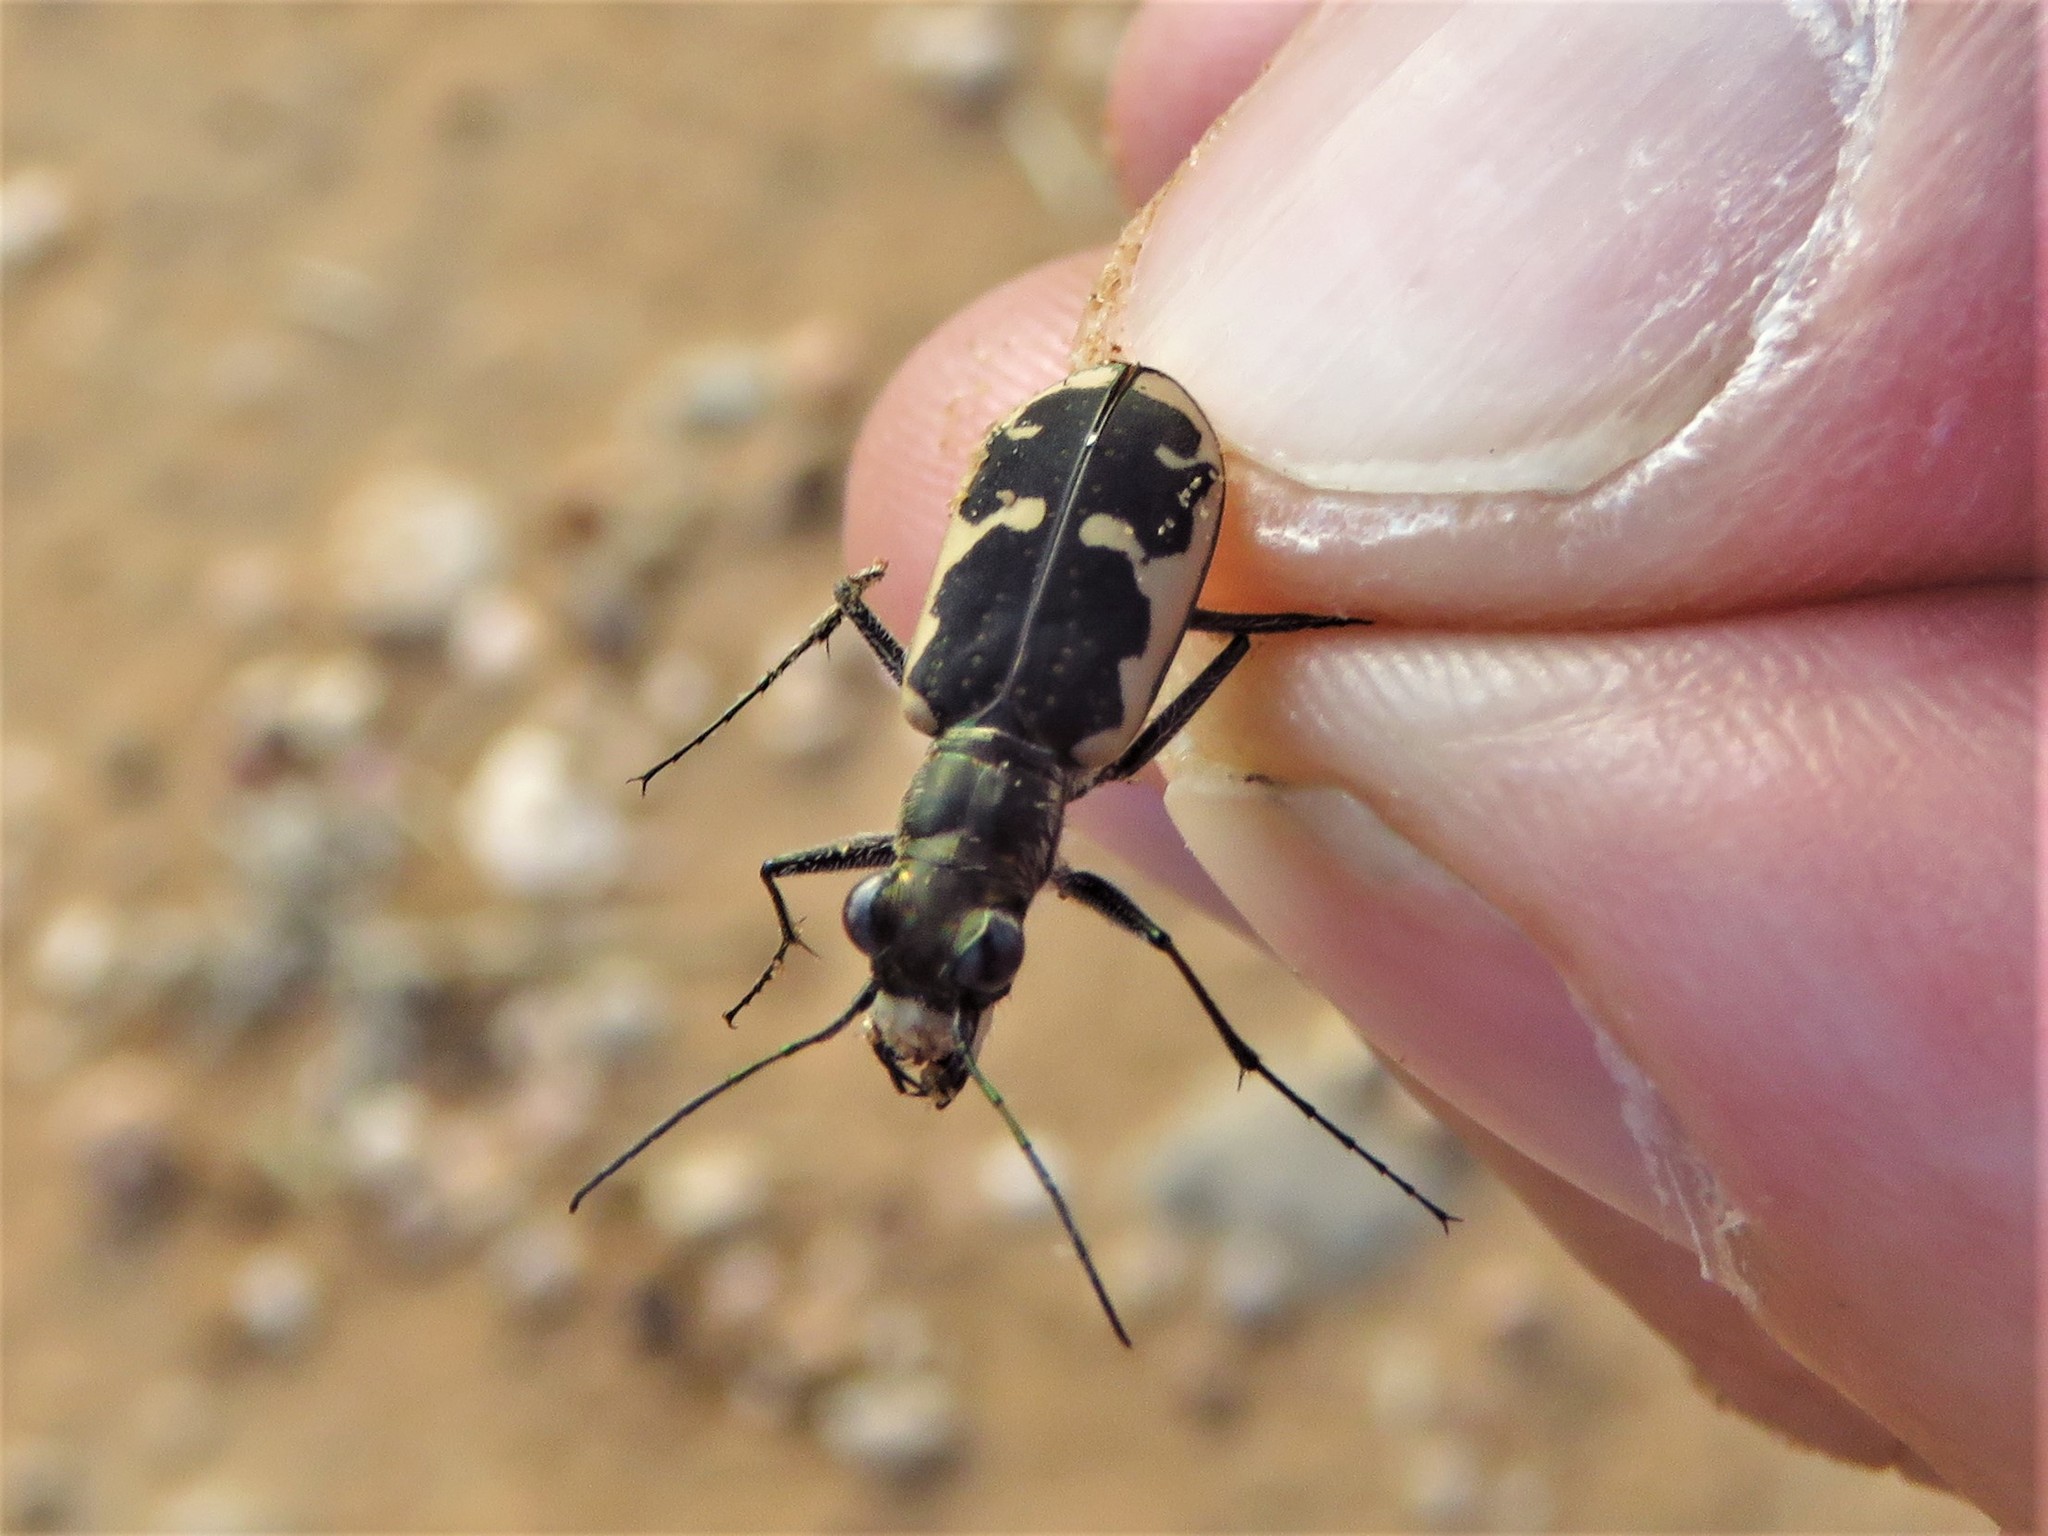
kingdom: Animalia
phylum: Arthropoda
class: Insecta
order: Coleoptera
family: Carabidae
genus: Cicindela
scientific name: Cicindela schauppii
